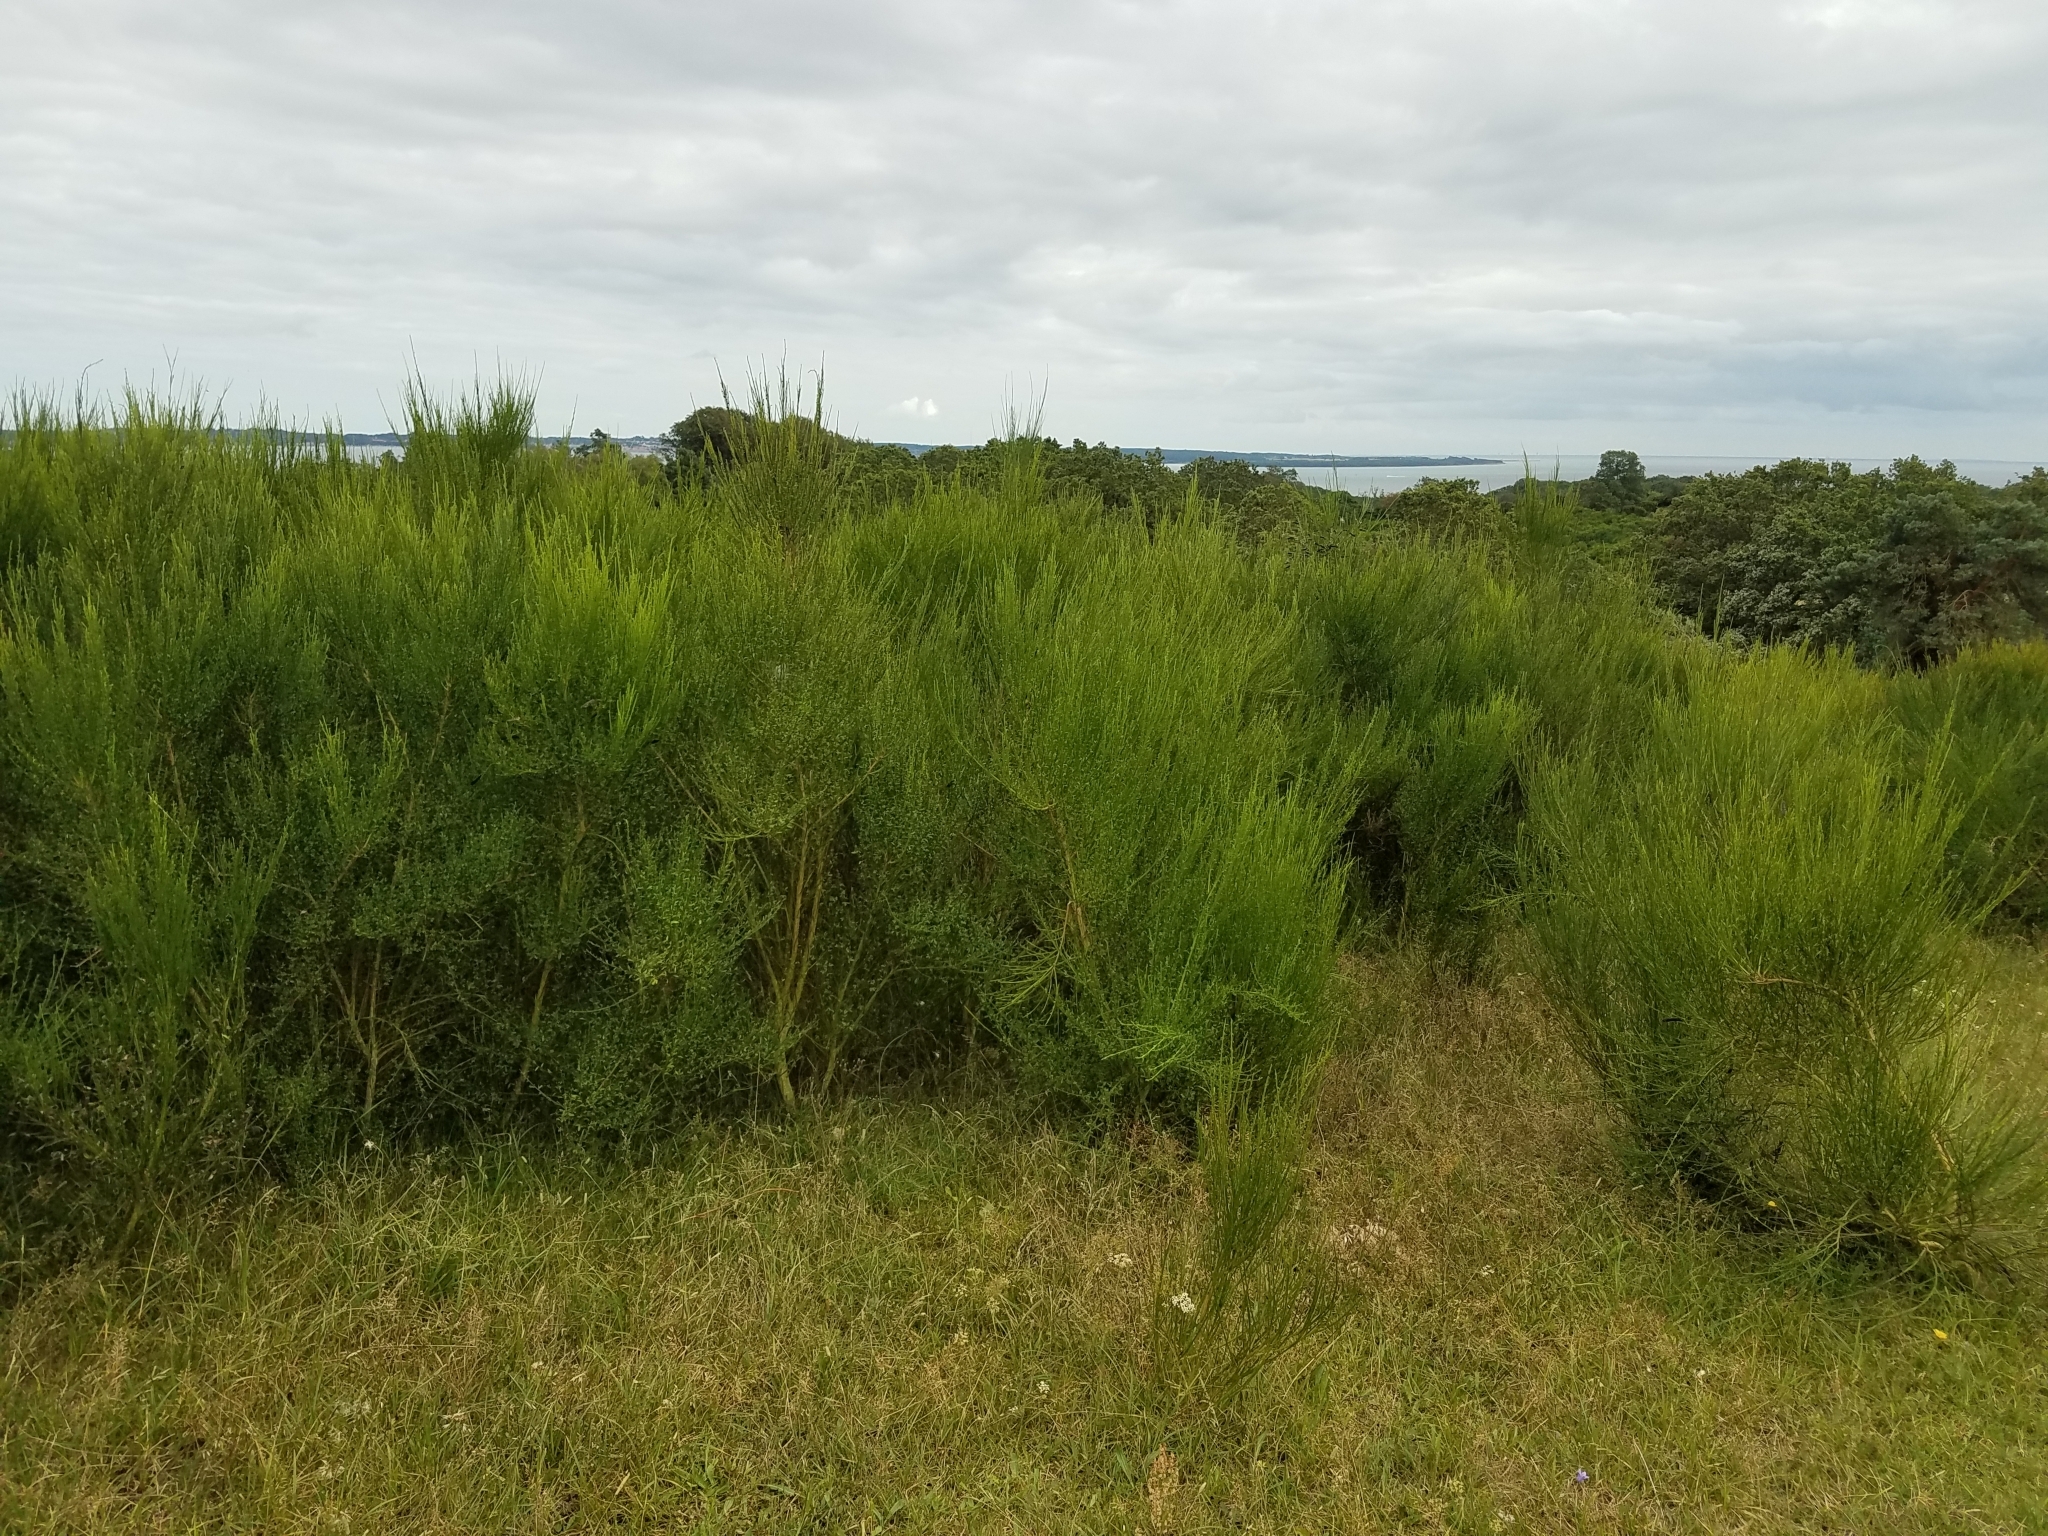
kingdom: Plantae
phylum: Tracheophyta
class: Magnoliopsida
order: Fabales
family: Fabaceae
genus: Cytisus
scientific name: Cytisus scoparius
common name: Scotch broom
